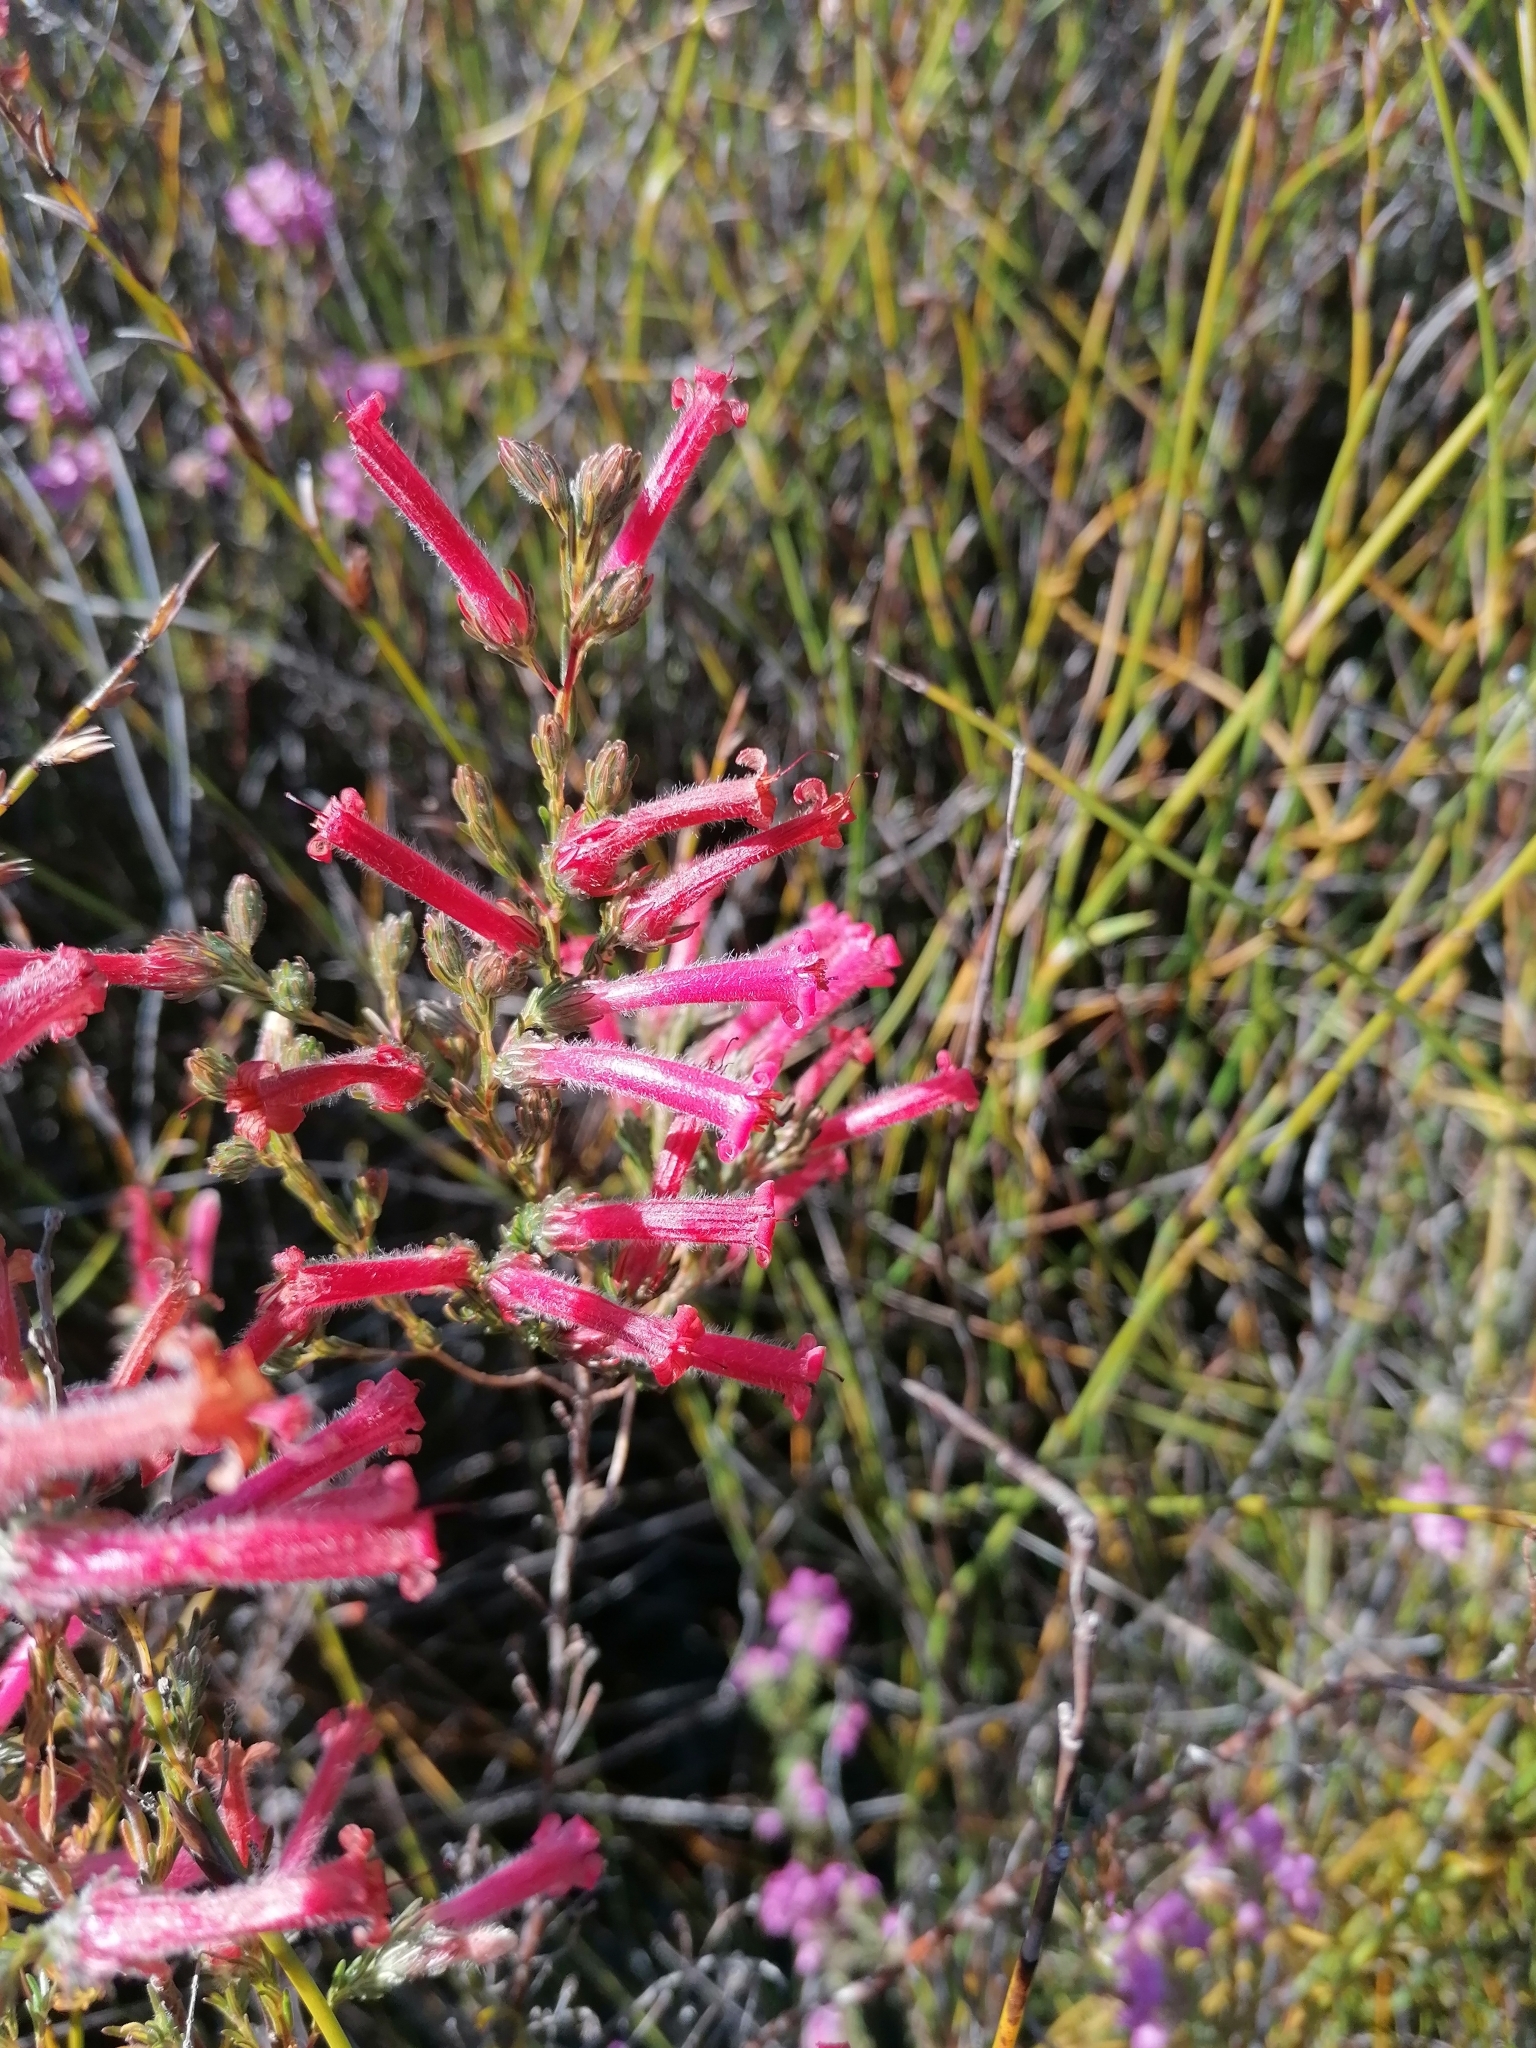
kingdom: Plantae
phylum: Tracheophyta
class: Magnoliopsida
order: Ericales
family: Ericaceae
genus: Erica
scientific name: Erica curviflora
